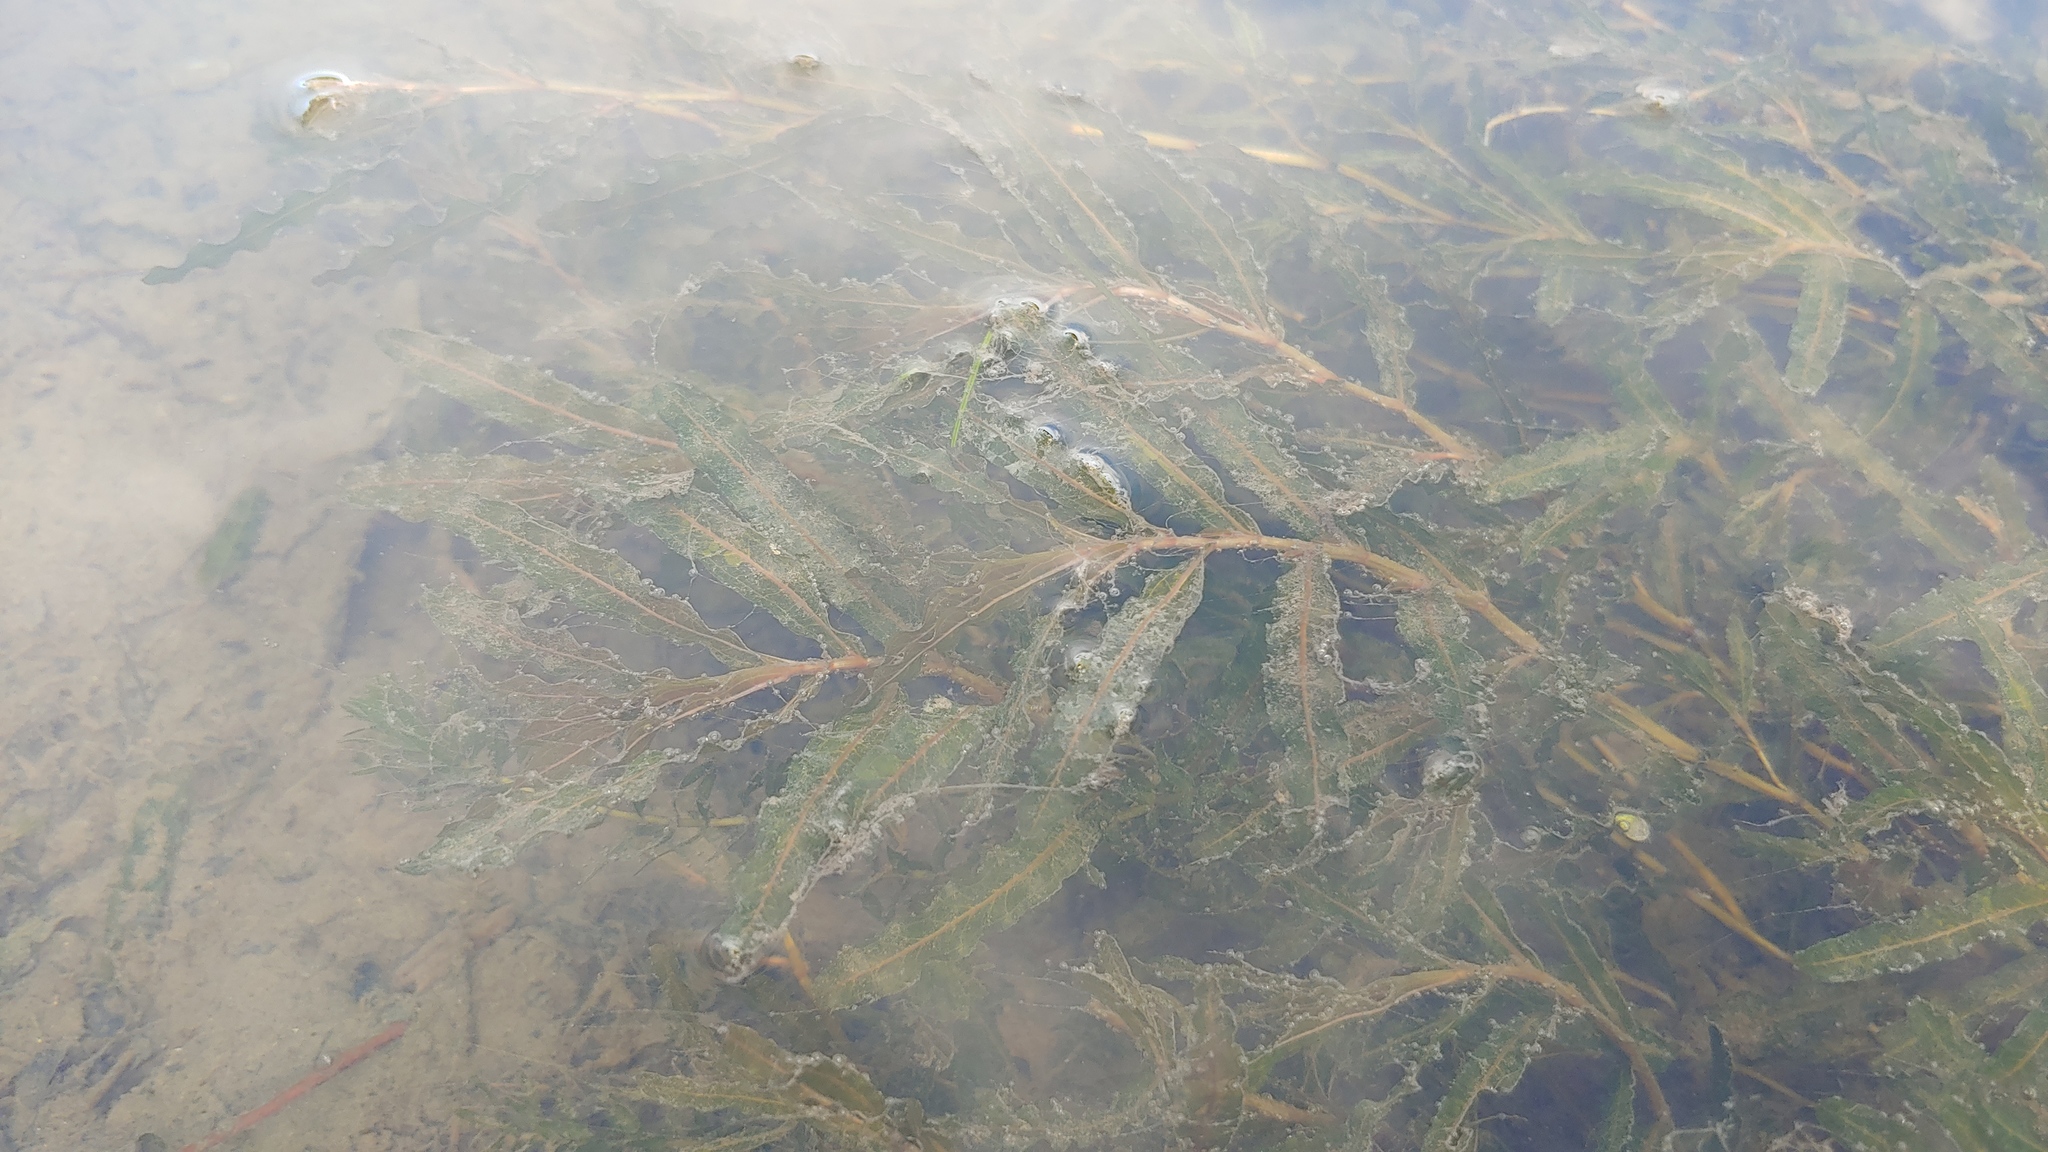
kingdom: Plantae
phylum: Tracheophyta
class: Liliopsida
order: Alismatales
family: Potamogetonaceae
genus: Potamogeton
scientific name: Potamogeton crispus
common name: Curled pondweed
